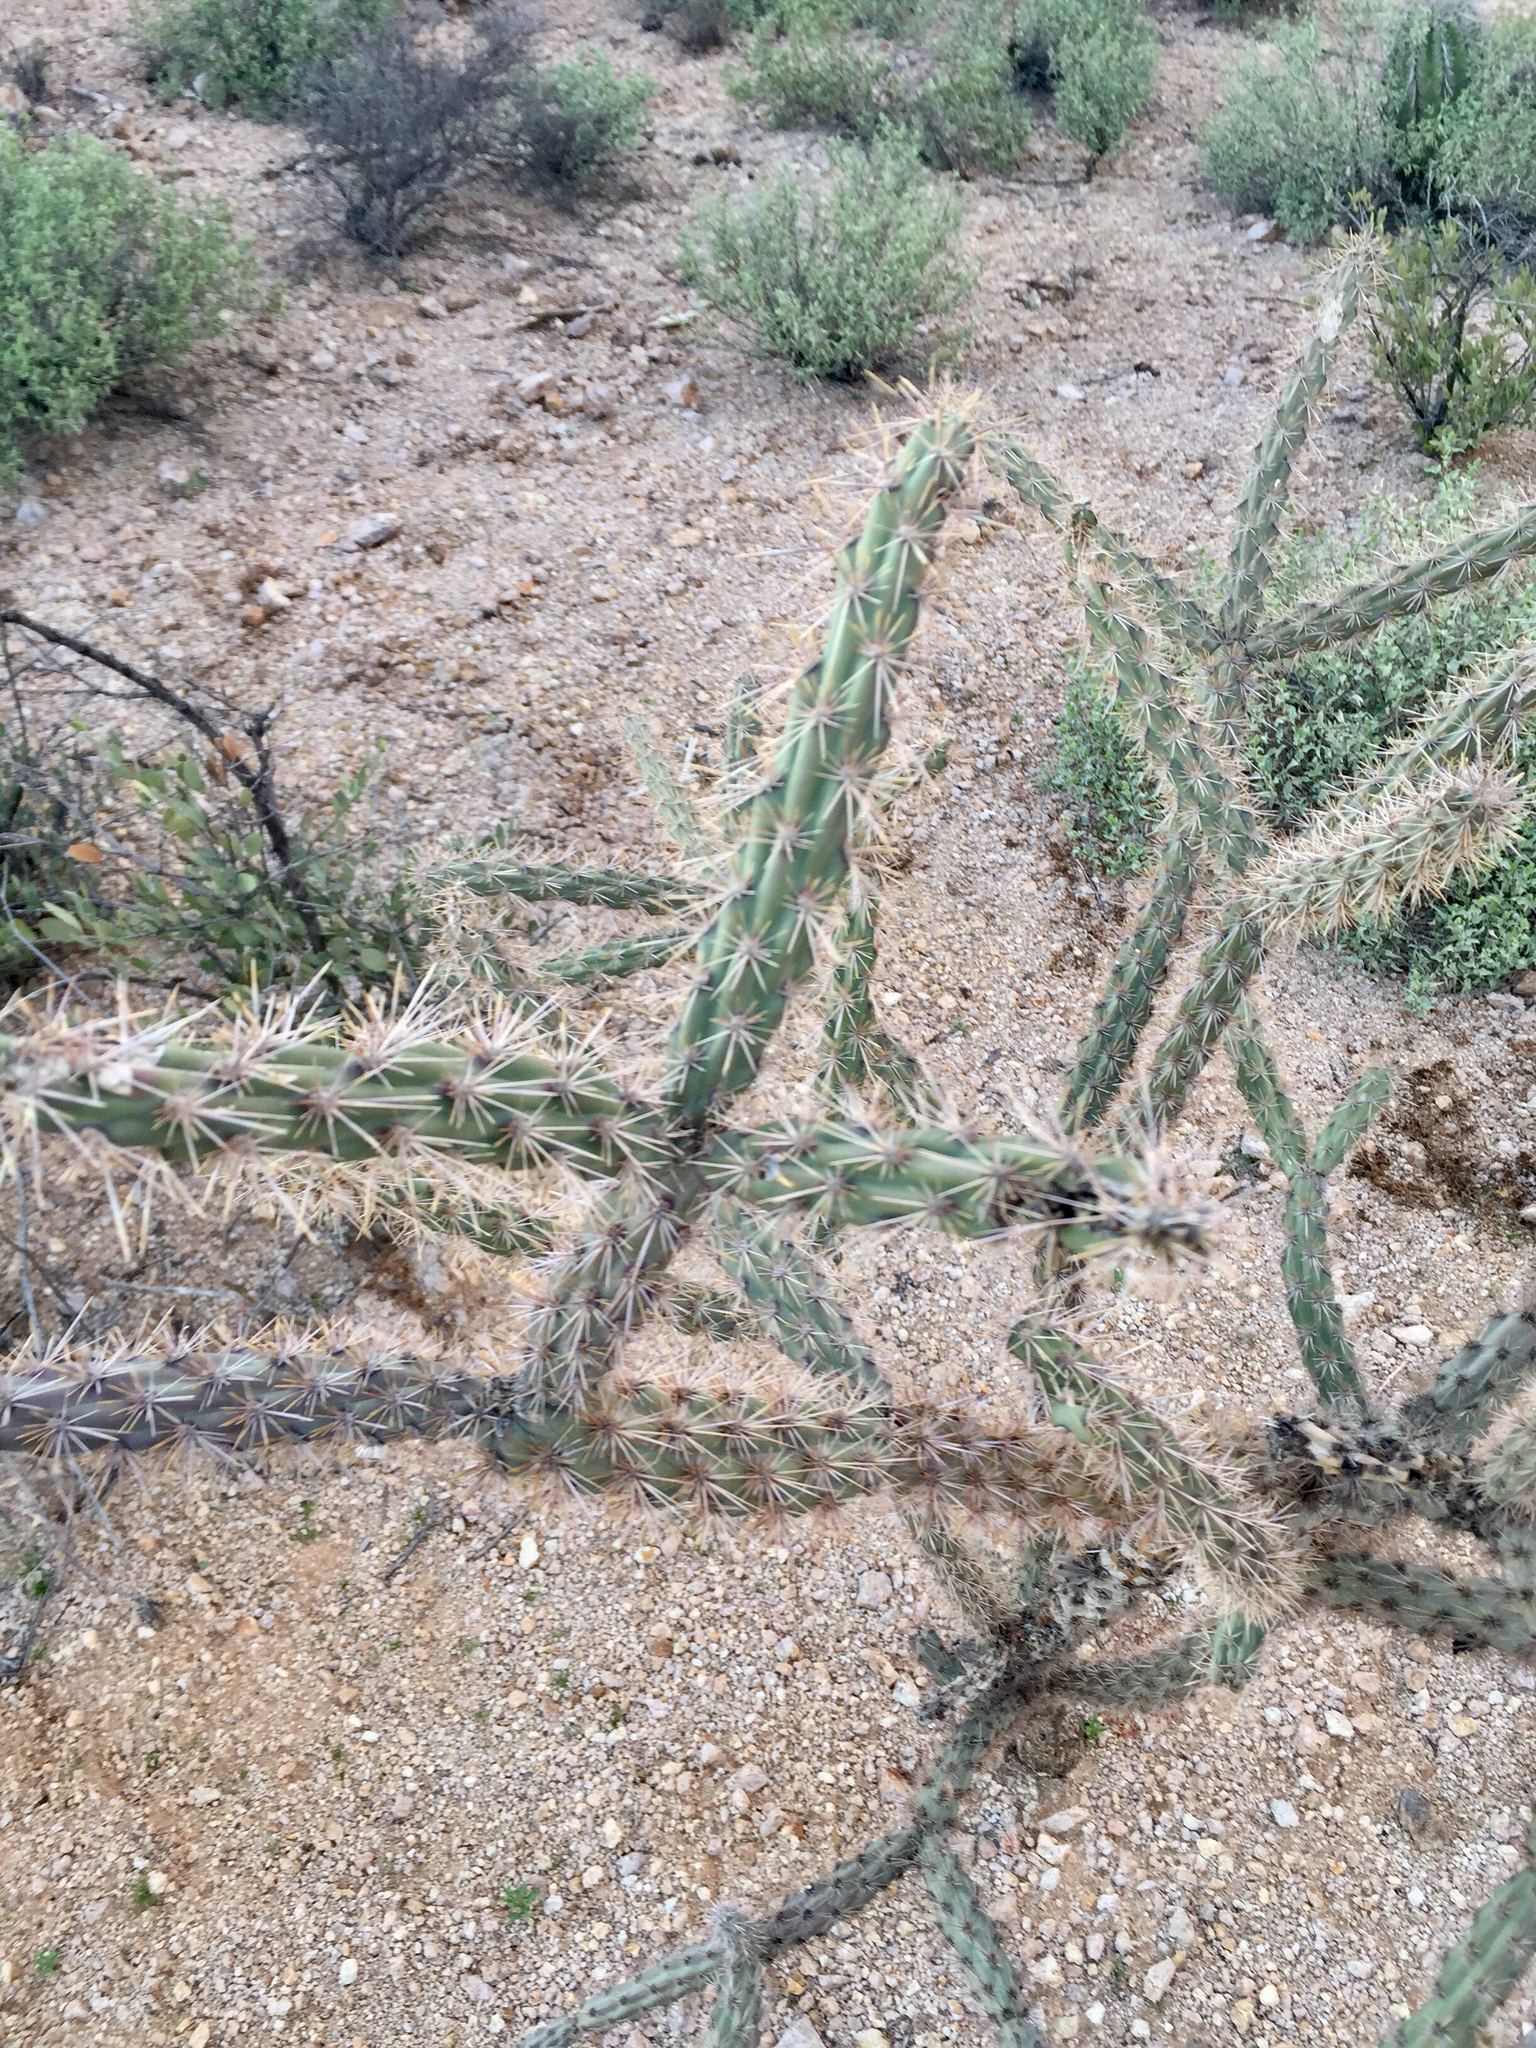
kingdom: Plantae
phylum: Tracheophyta
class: Magnoliopsida
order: Caryophyllales
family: Cactaceae
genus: Cylindropuntia
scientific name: Cylindropuntia acanthocarpa
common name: Buckhorn cholla
